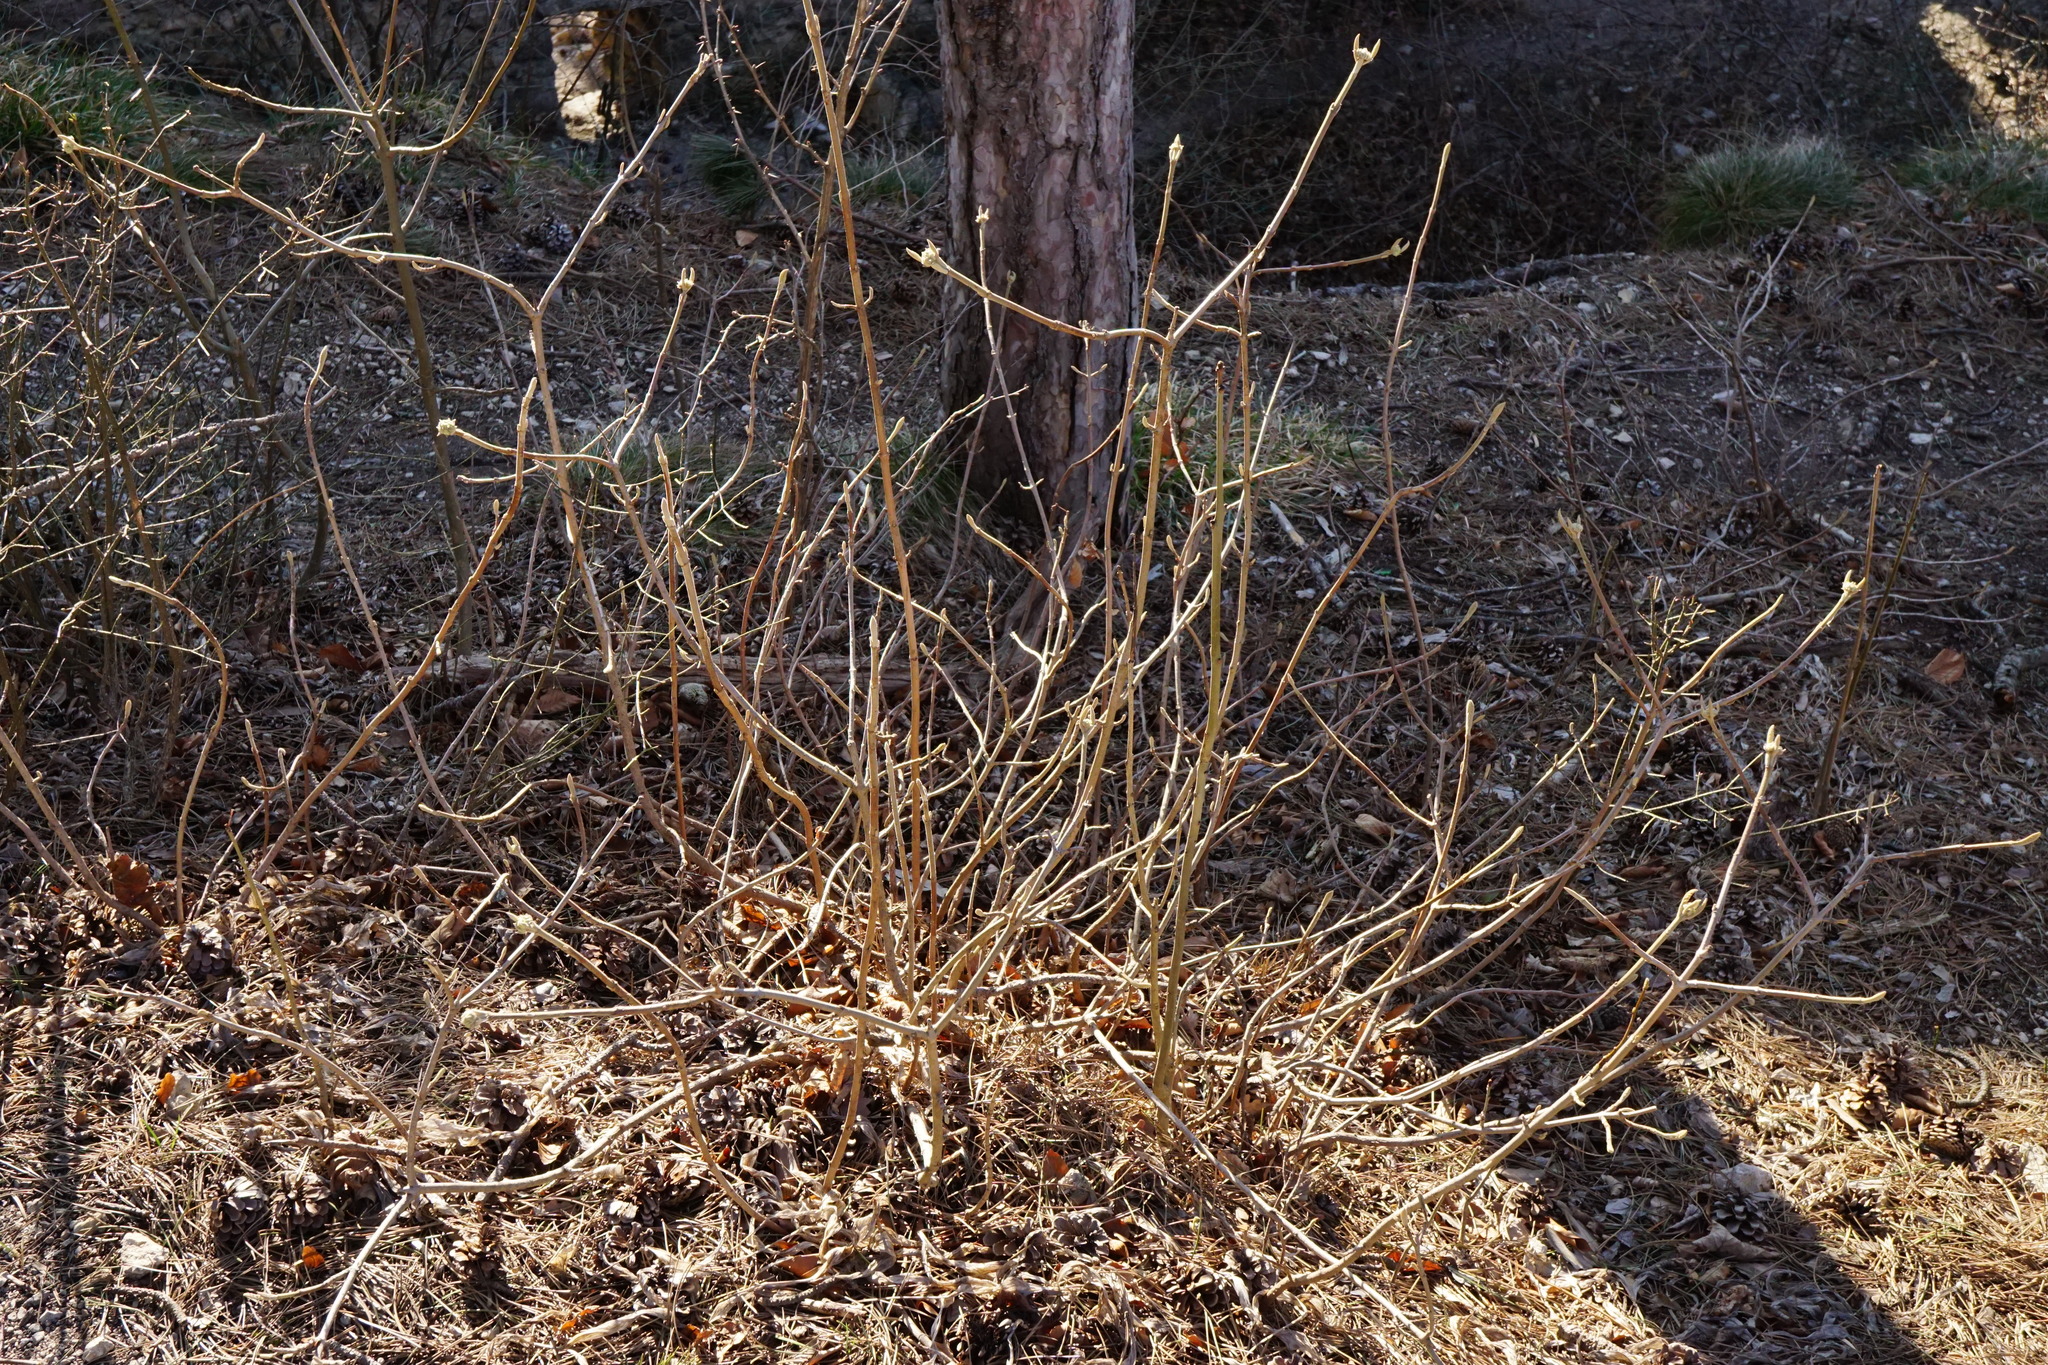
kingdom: Plantae
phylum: Tracheophyta
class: Magnoliopsida
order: Dipsacales
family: Viburnaceae
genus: Viburnum
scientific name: Viburnum lantana
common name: Wayfaring tree
